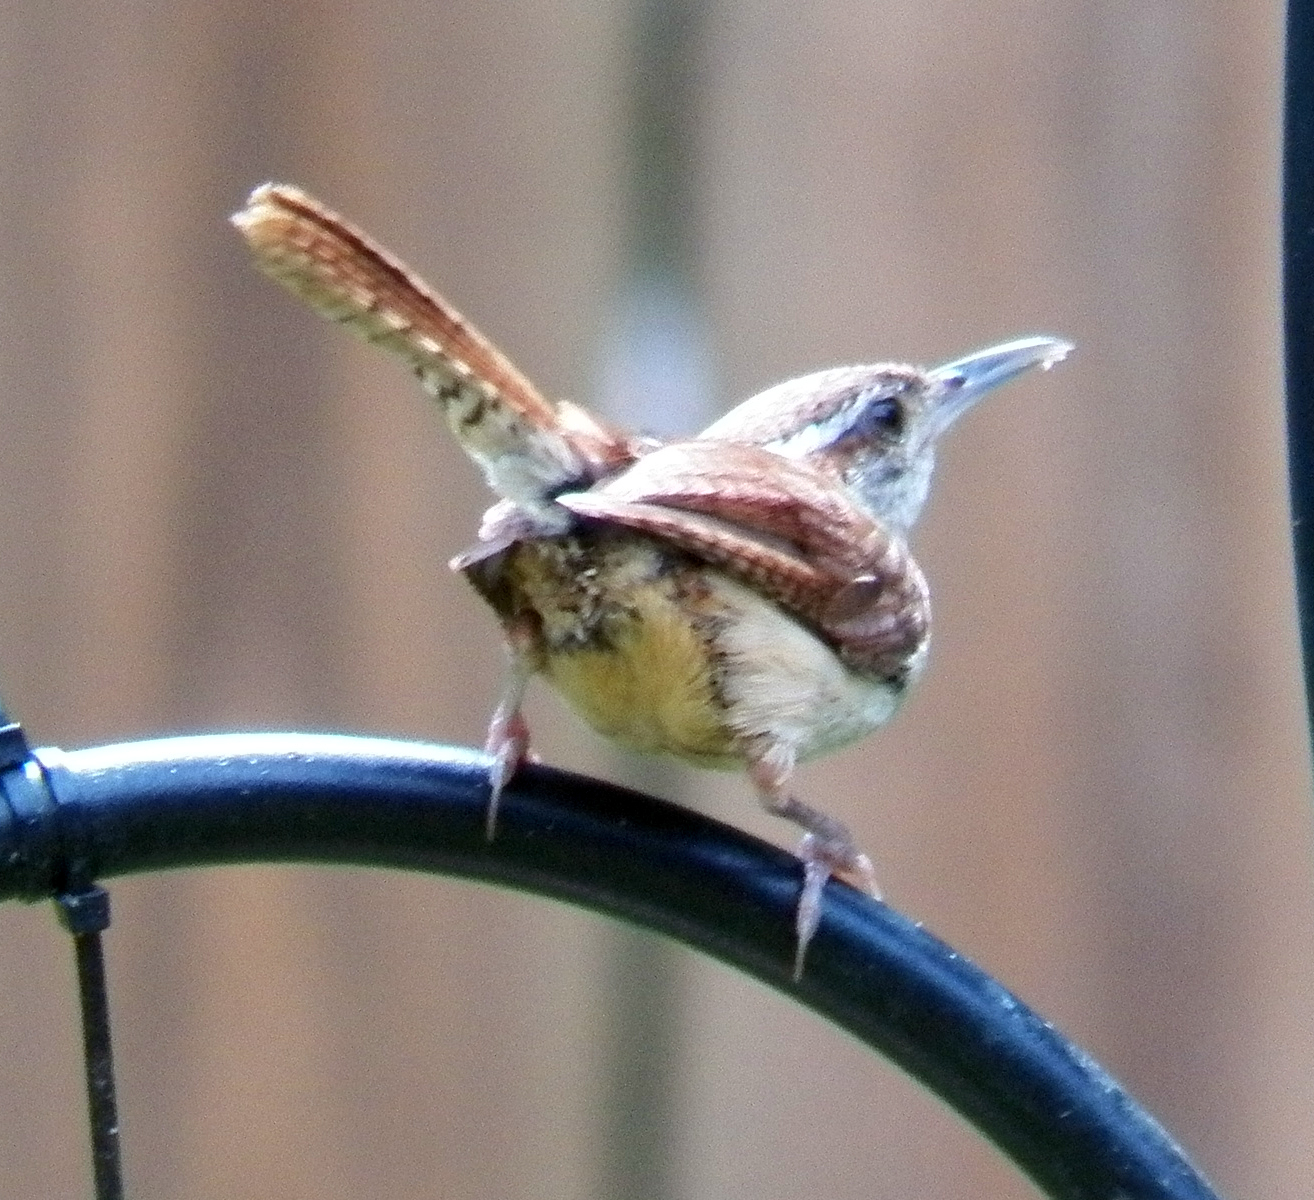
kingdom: Animalia
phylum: Chordata
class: Aves
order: Passeriformes
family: Troglodytidae
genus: Thryothorus
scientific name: Thryothorus ludovicianus
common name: Carolina wren
